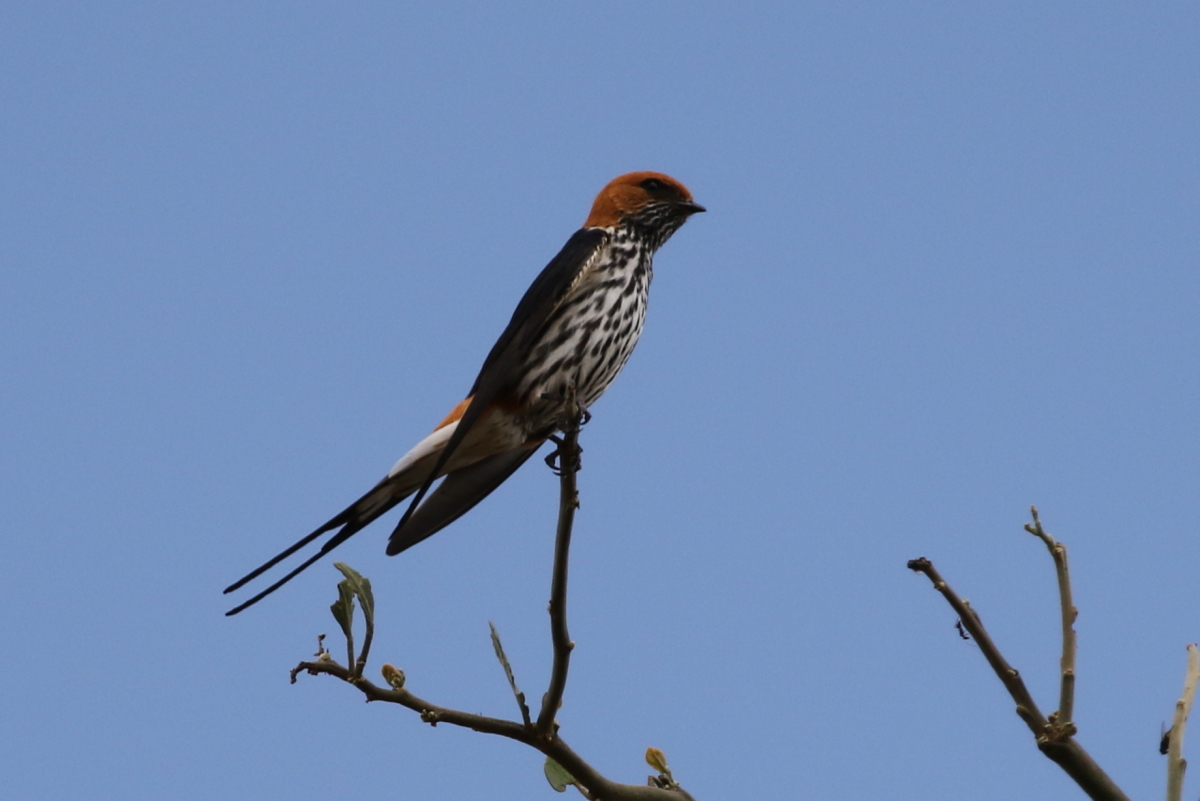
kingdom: Animalia
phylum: Chordata
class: Aves
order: Passeriformes
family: Hirundinidae
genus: Cecropis
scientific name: Cecropis abyssinica
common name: Lesser striped-swallow
